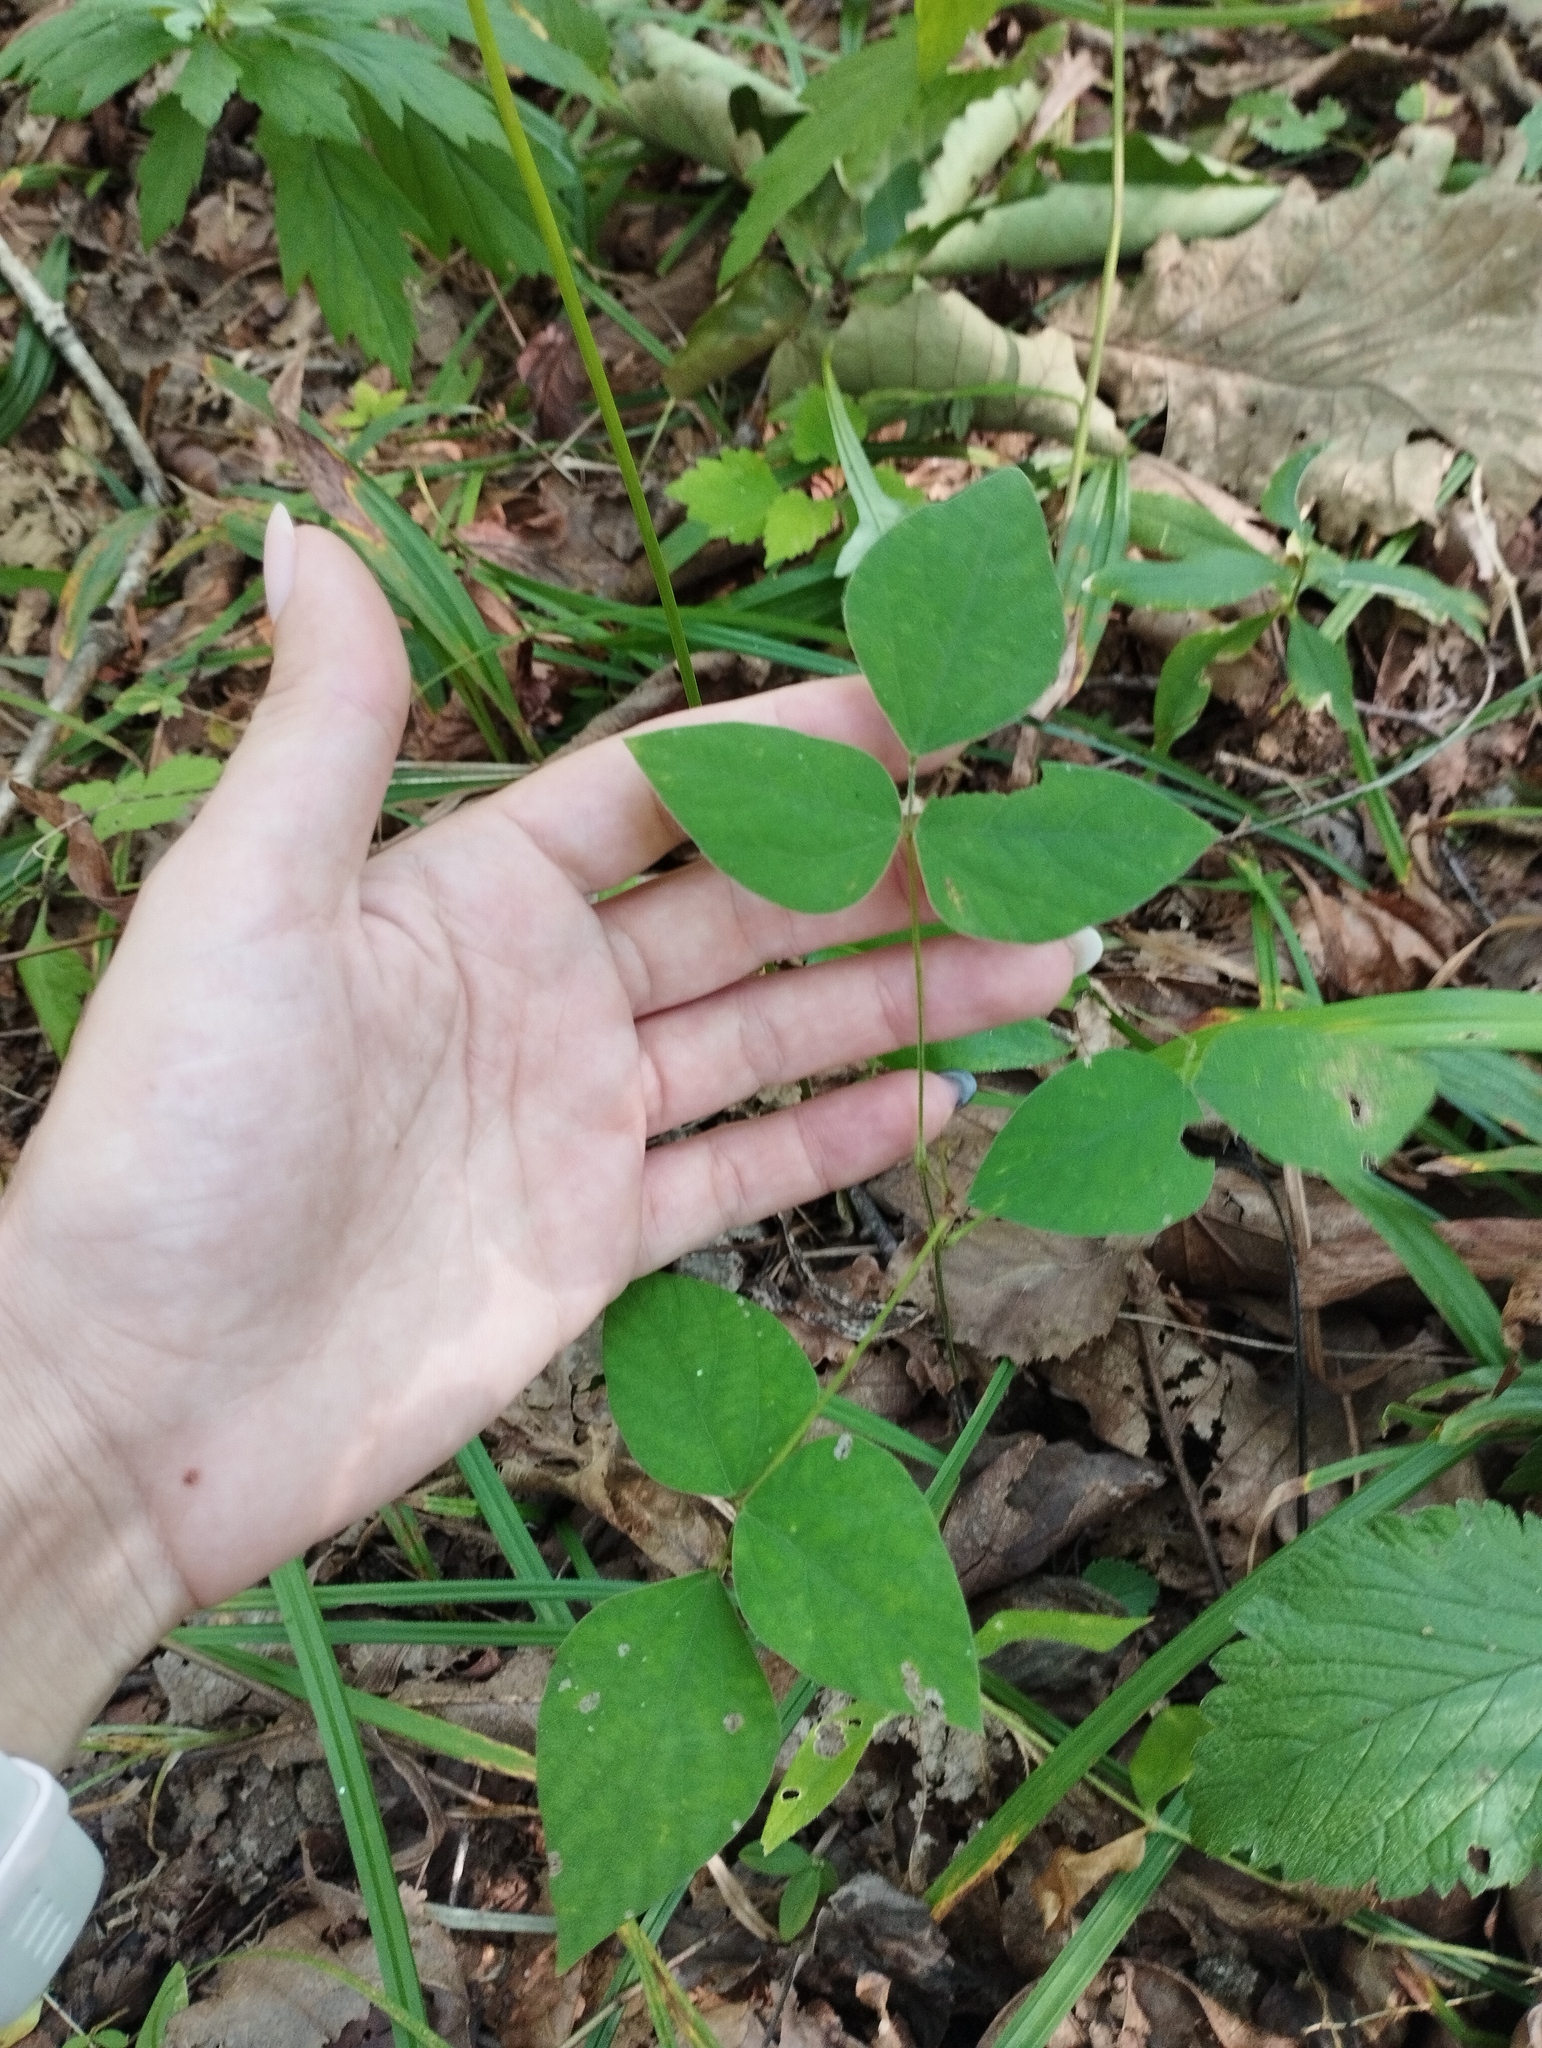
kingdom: Plantae
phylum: Tracheophyta
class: Magnoliopsida
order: Fabales
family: Fabaceae
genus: Hylodesmum
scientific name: Hylodesmum podocarpum
